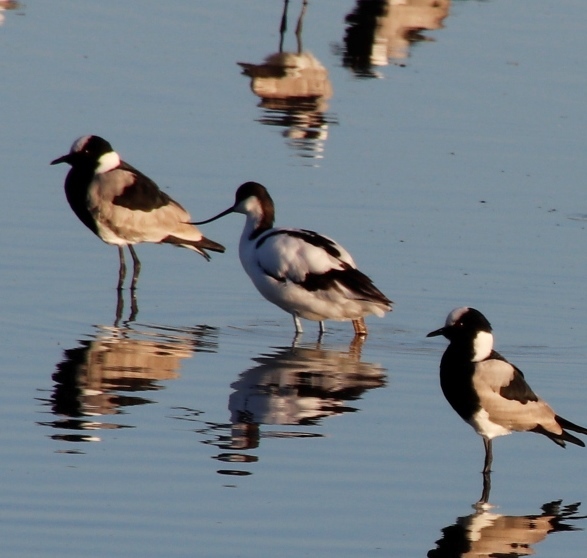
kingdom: Animalia
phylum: Chordata
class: Aves
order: Charadriiformes
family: Recurvirostridae
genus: Recurvirostra
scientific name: Recurvirostra avosetta
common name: Pied avocet
